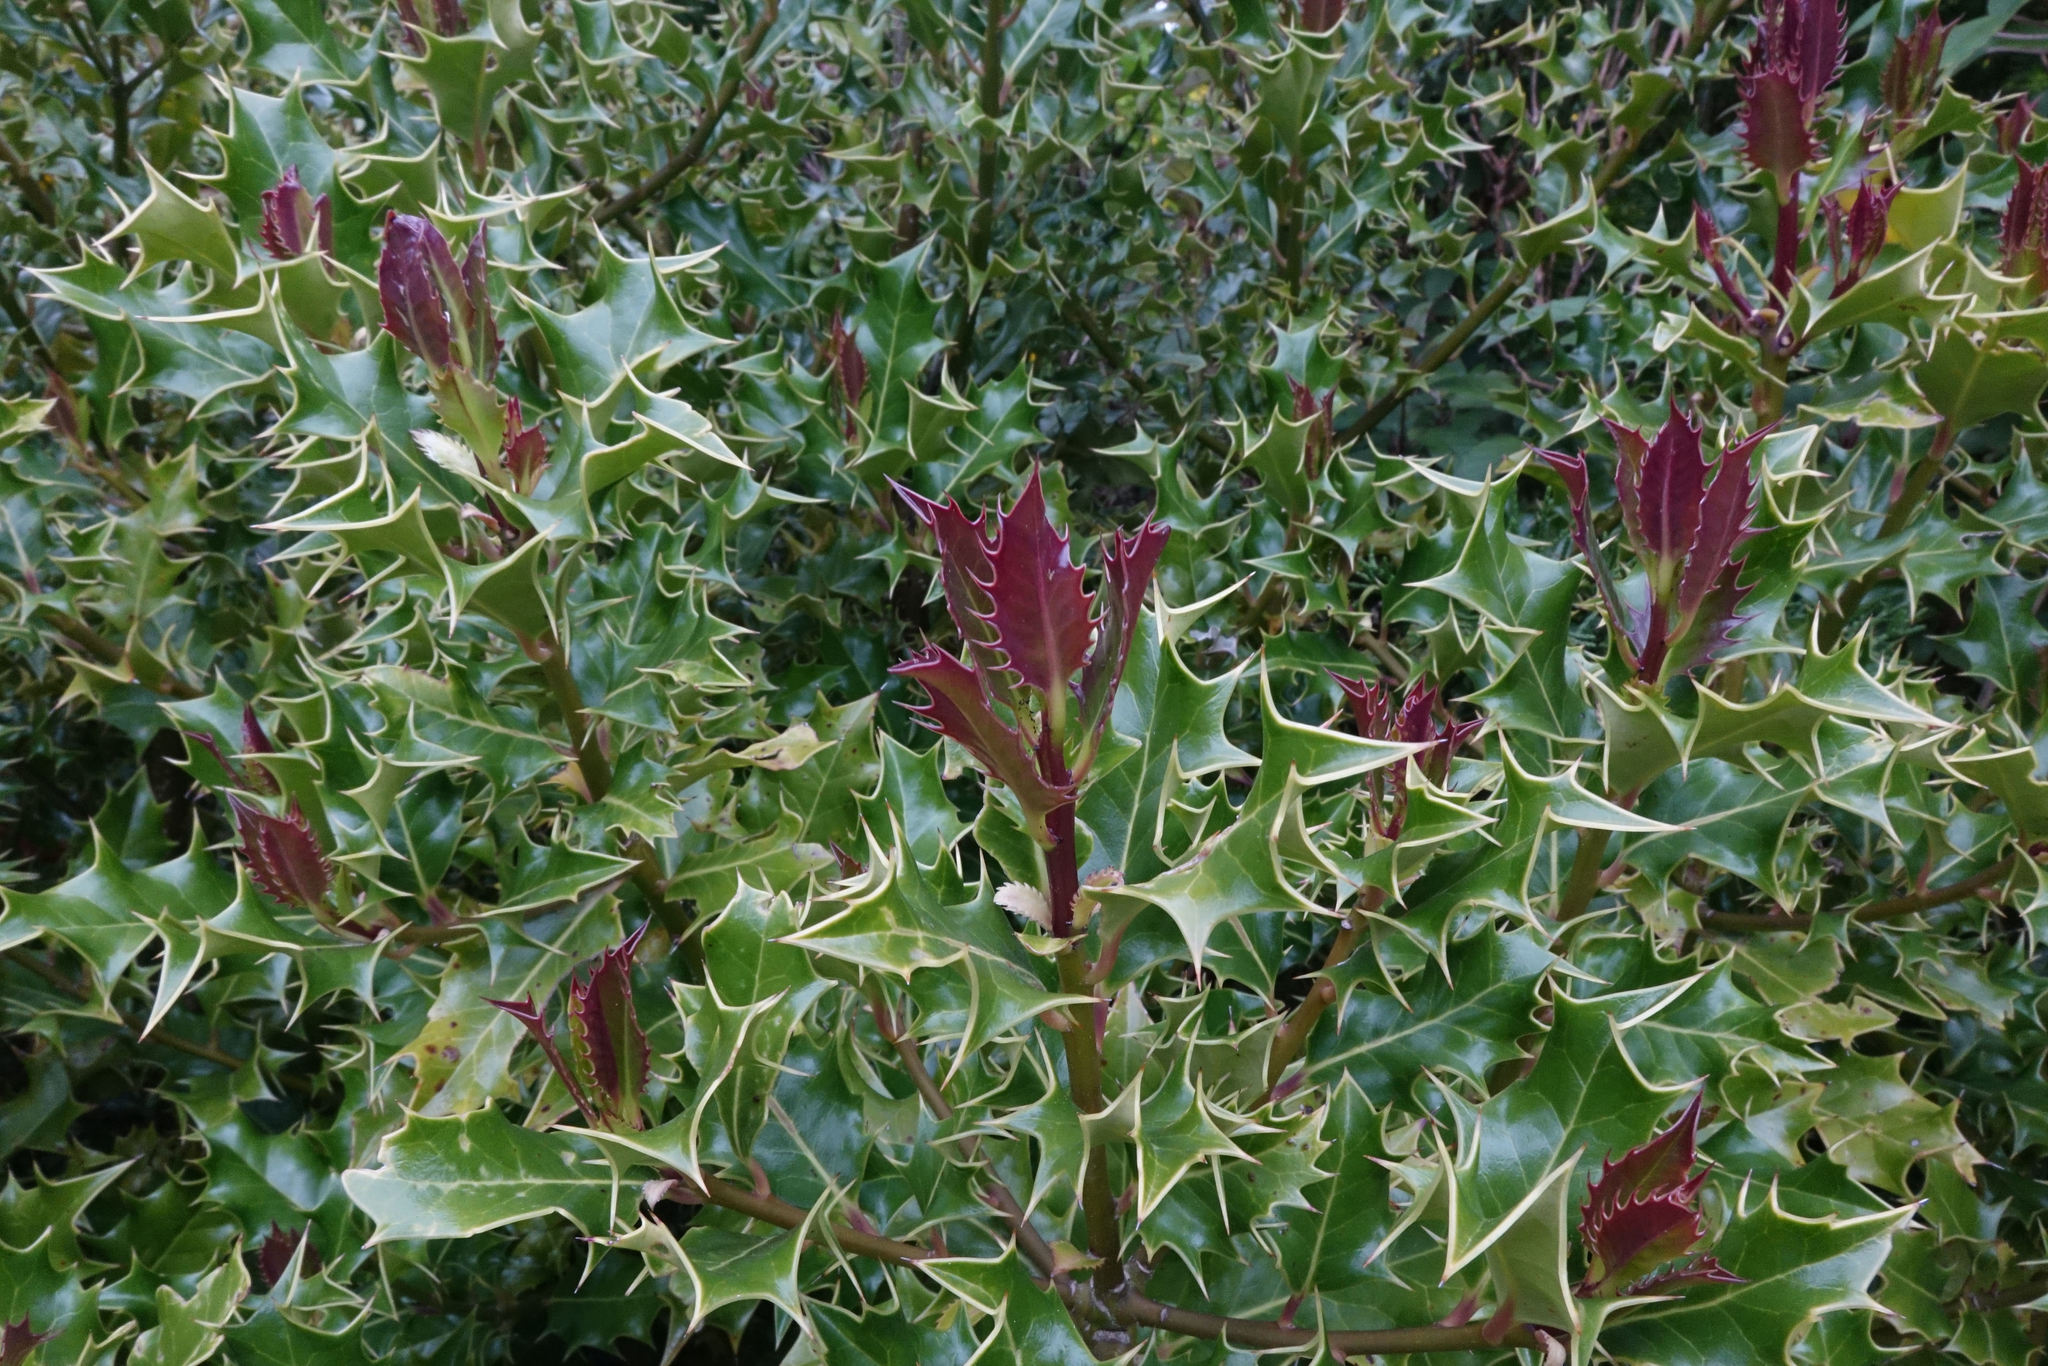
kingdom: Plantae
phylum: Tracheophyta
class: Magnoliopsida
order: Aquifoliales
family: Aquifoliaceae
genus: Ilex
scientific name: Ilex aquifolium
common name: English holly
